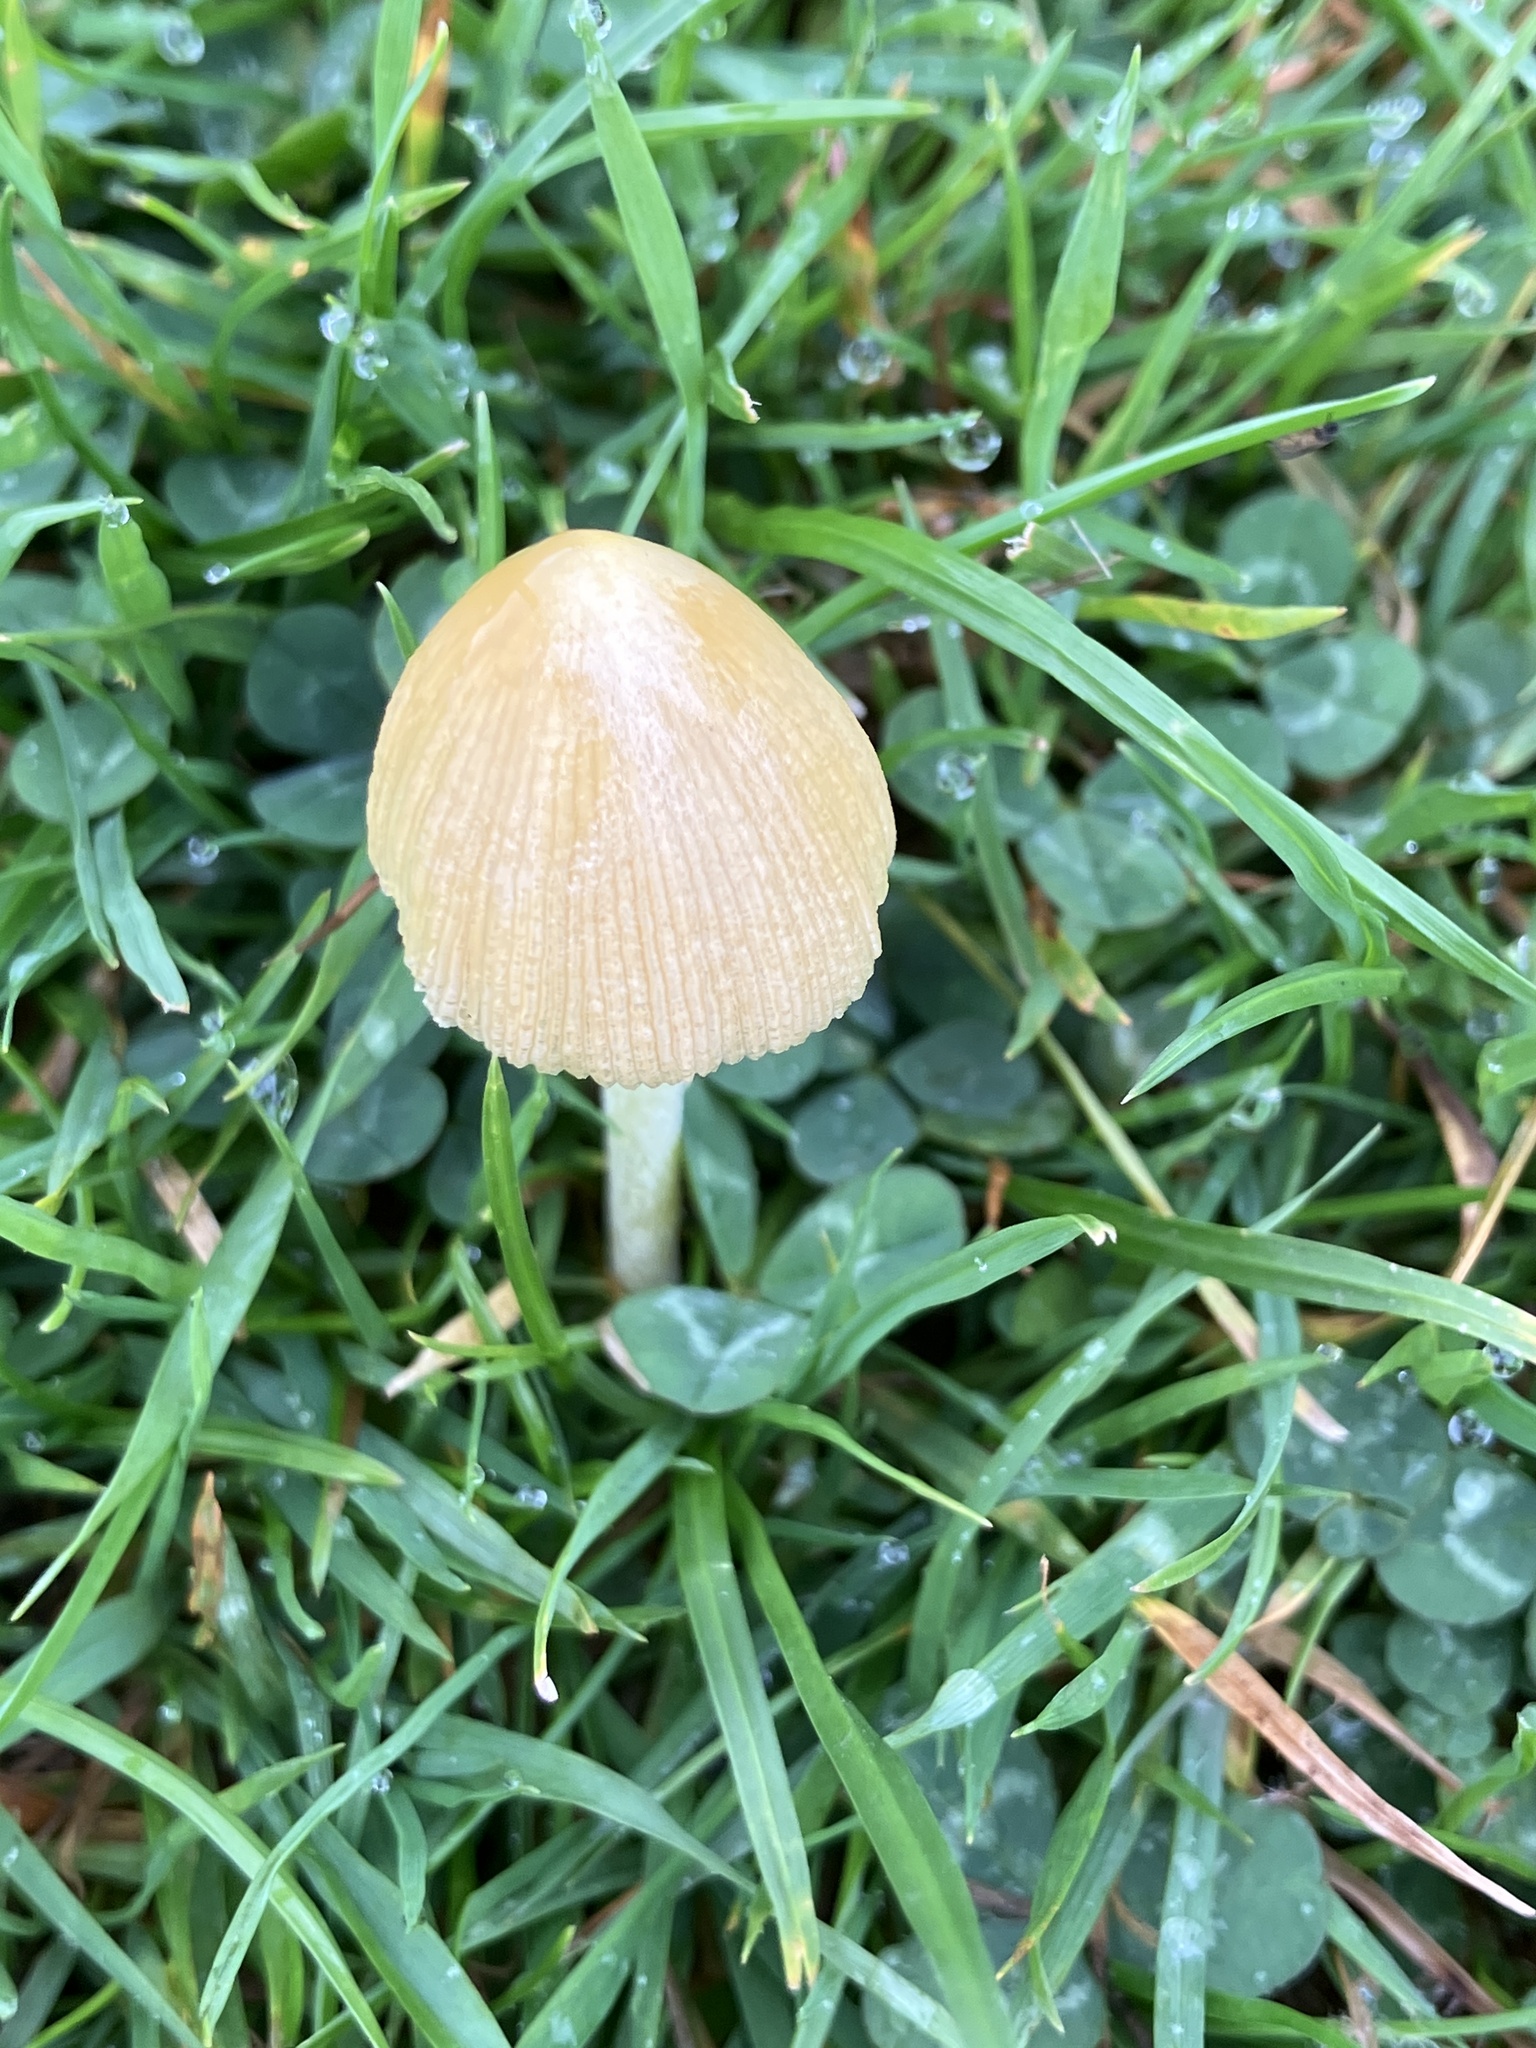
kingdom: Fungi
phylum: Basidiomycota
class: Agaricomycetes
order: Agaricales
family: Bolbitiaceae
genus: Bolbitius
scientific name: Bolbitius titubans
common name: Yellow fieldcap
